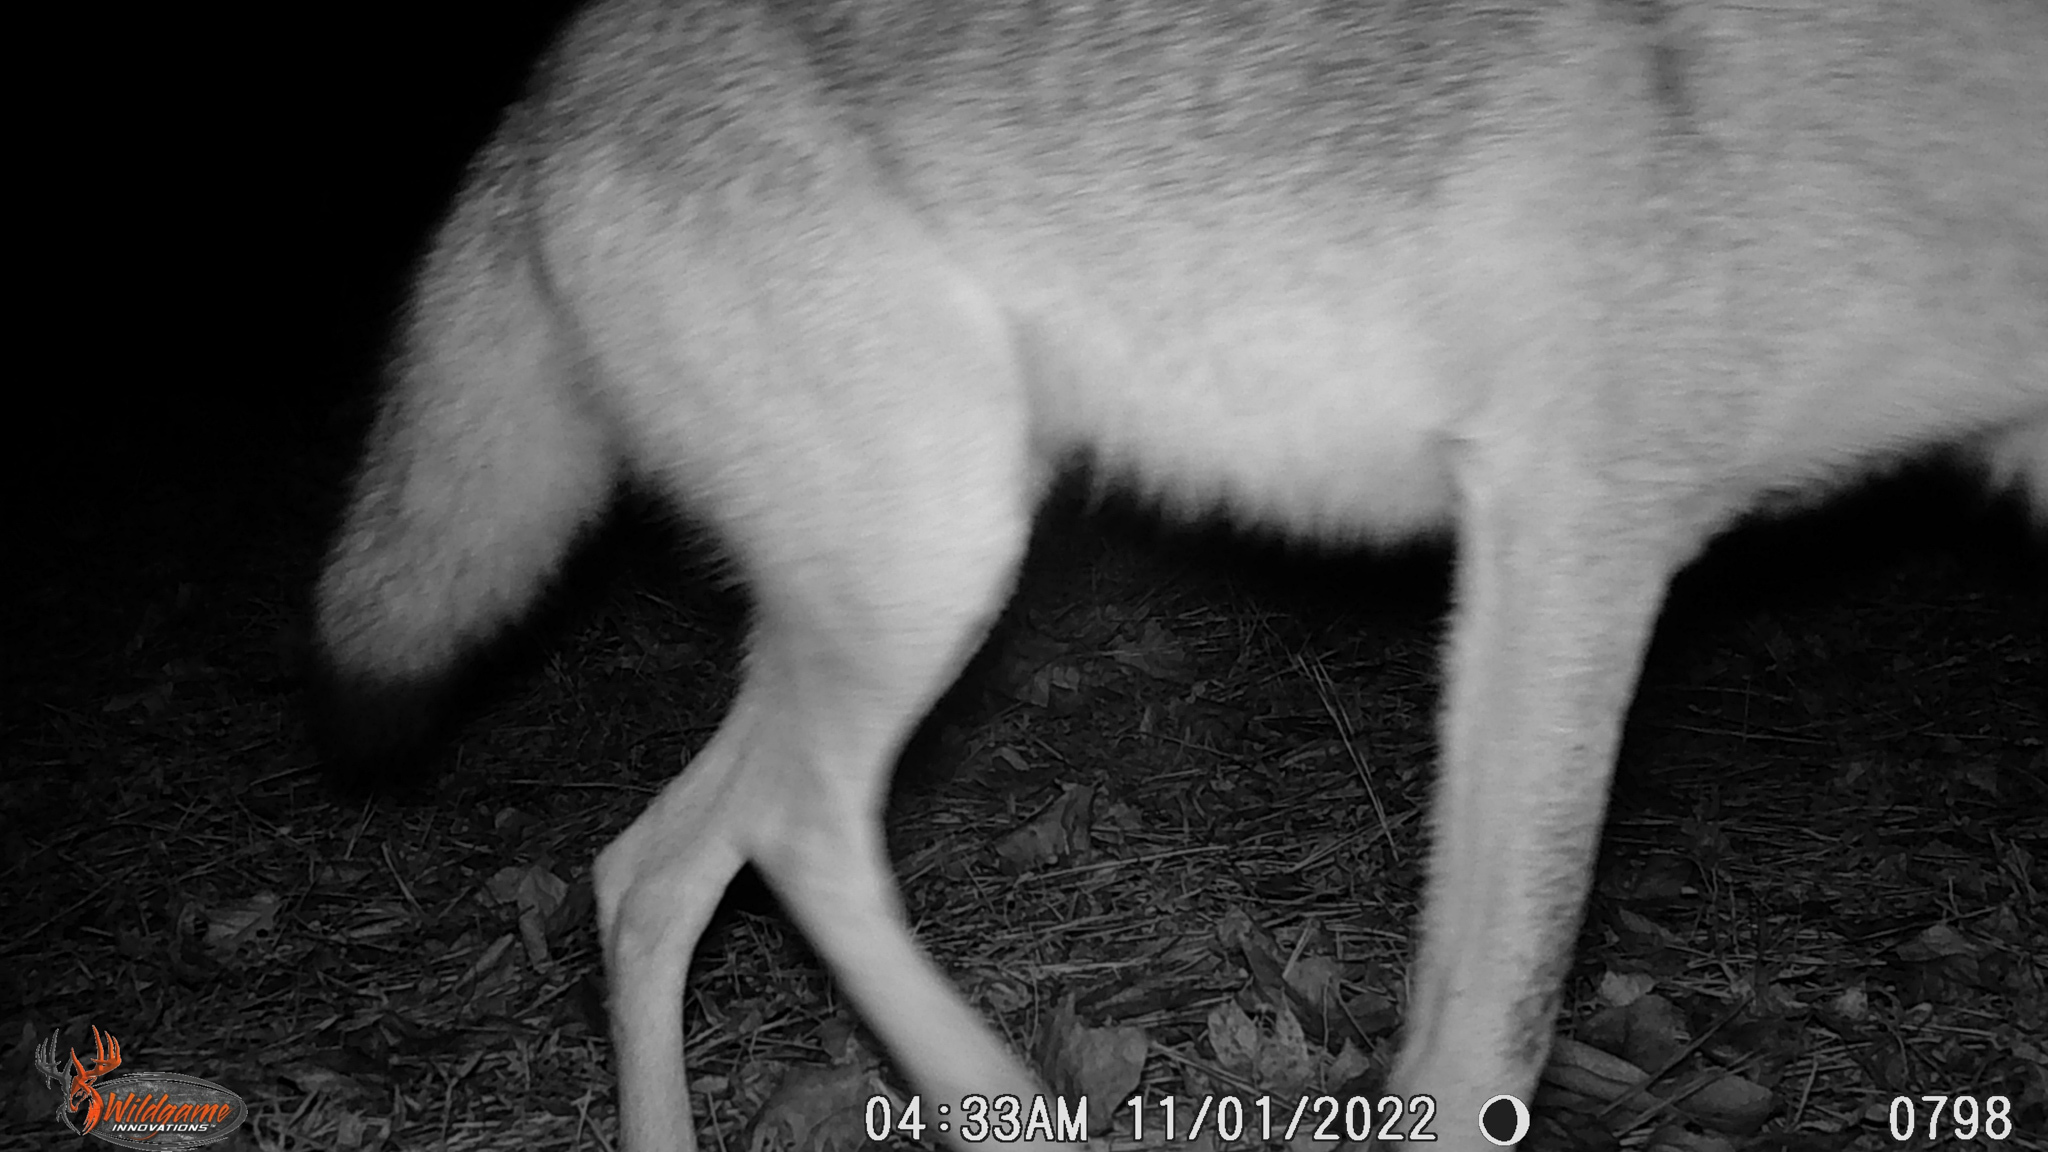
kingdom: Animalia
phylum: Chordata
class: Mammalia
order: Carnivora
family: Canidae
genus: Canis
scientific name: Canis latrans
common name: Coyote
